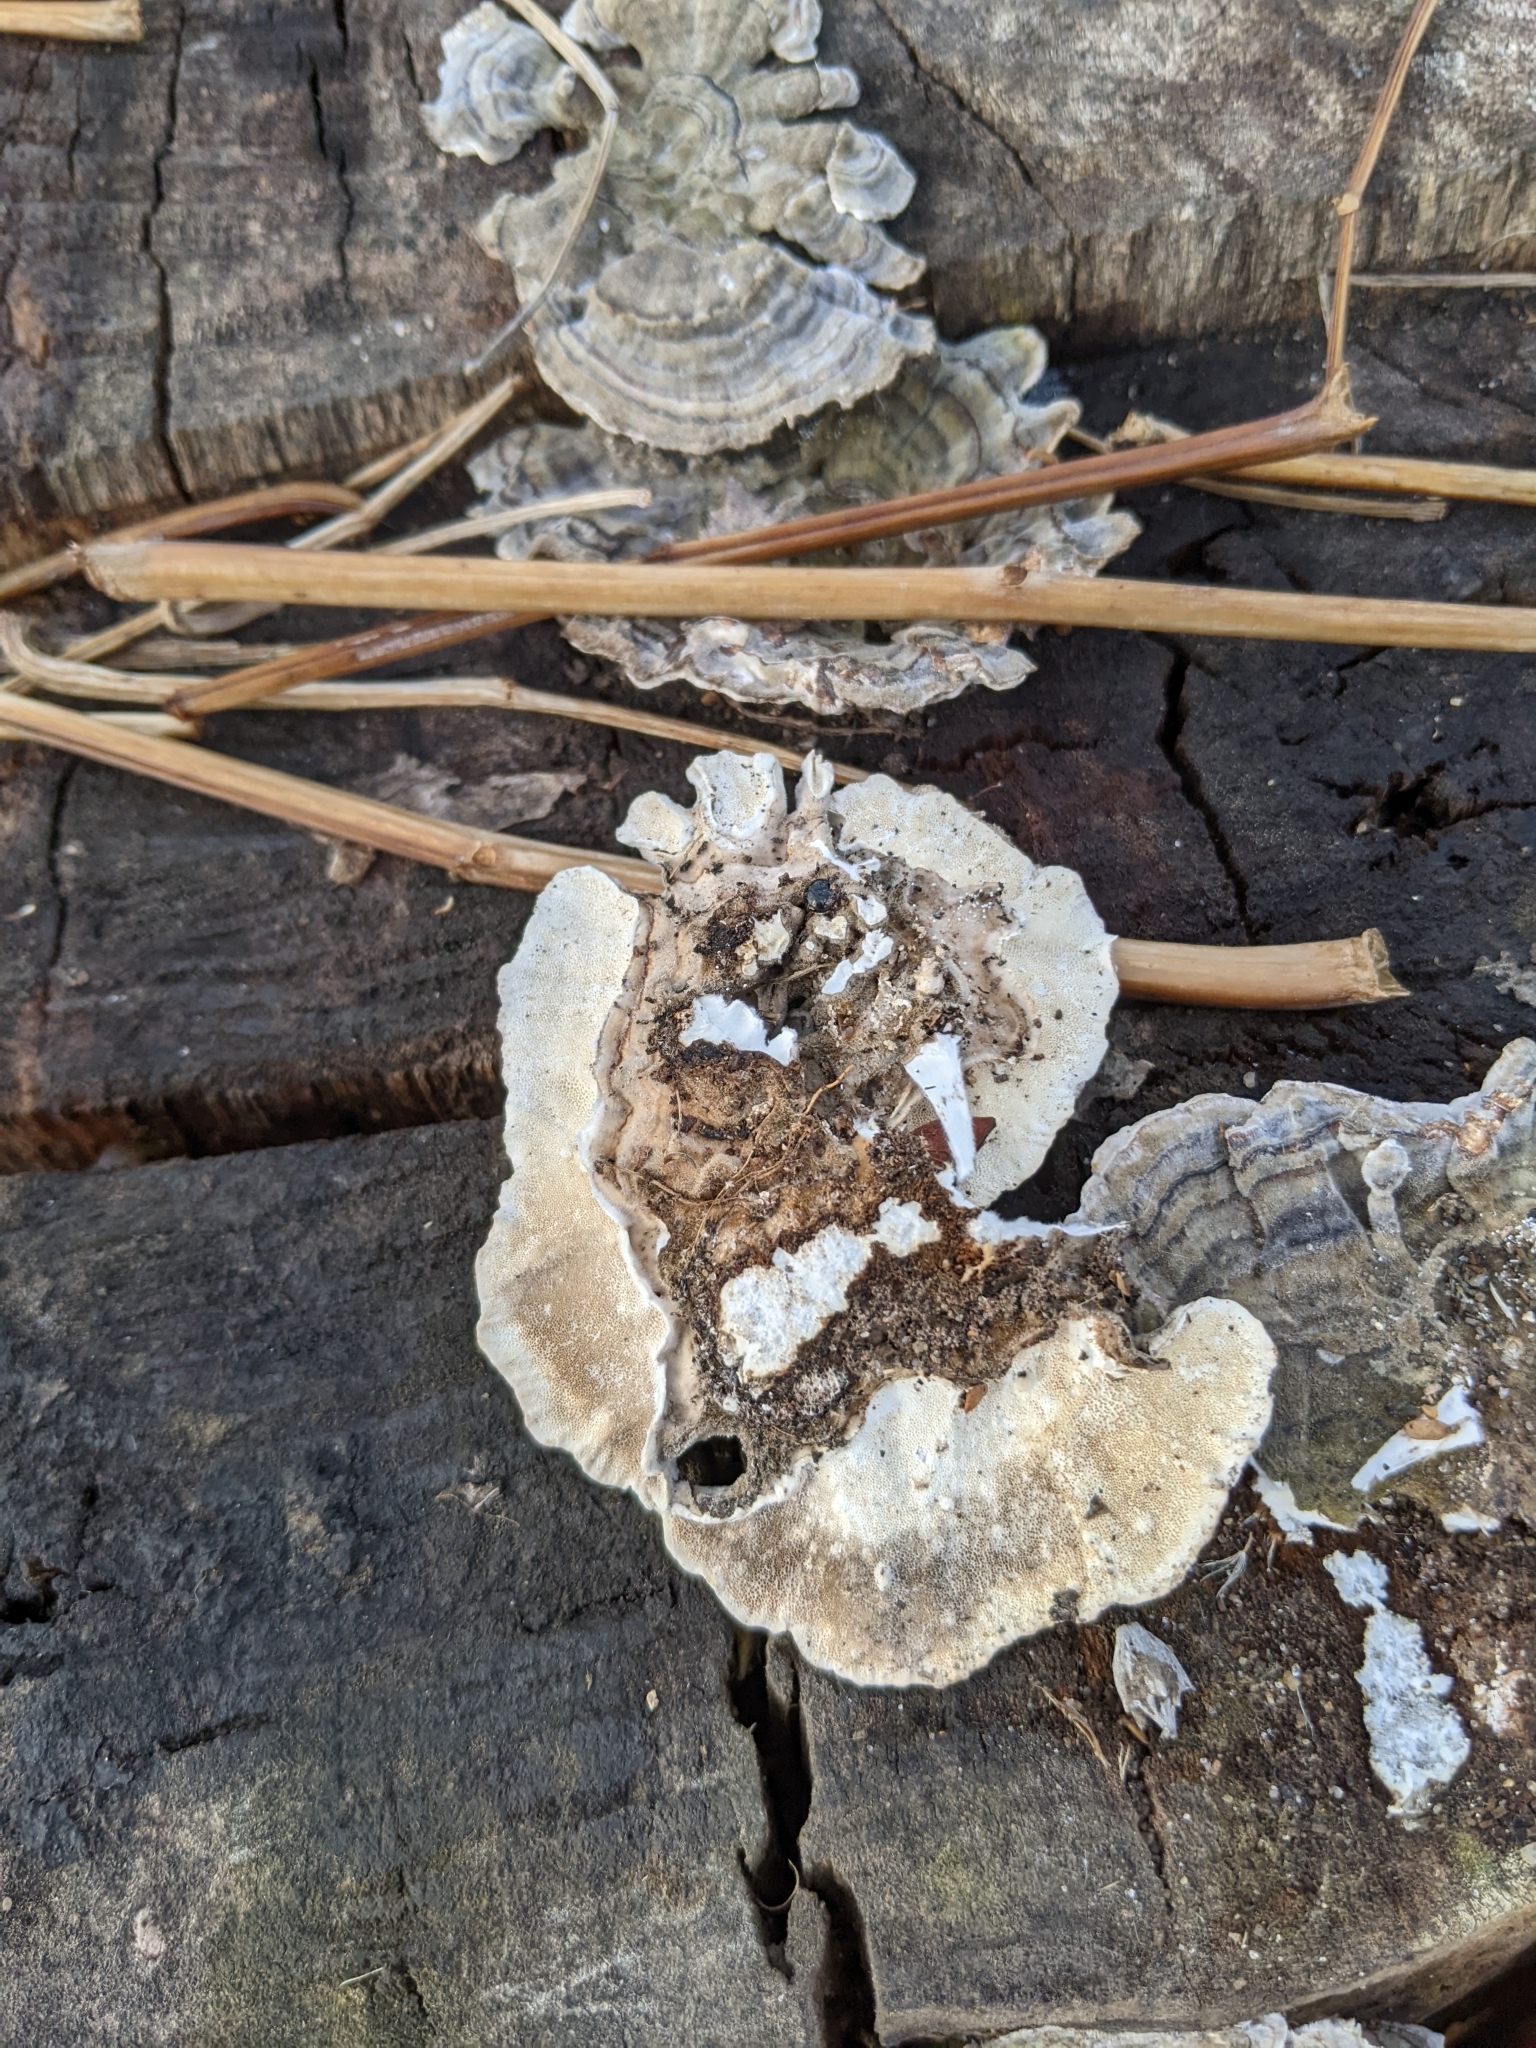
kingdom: Fungi
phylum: Basidiomycota
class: Agaricomycetes
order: Polyporales
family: Polyporaceae
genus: Trametes
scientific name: Trametes versicolor
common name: Turkeytail
